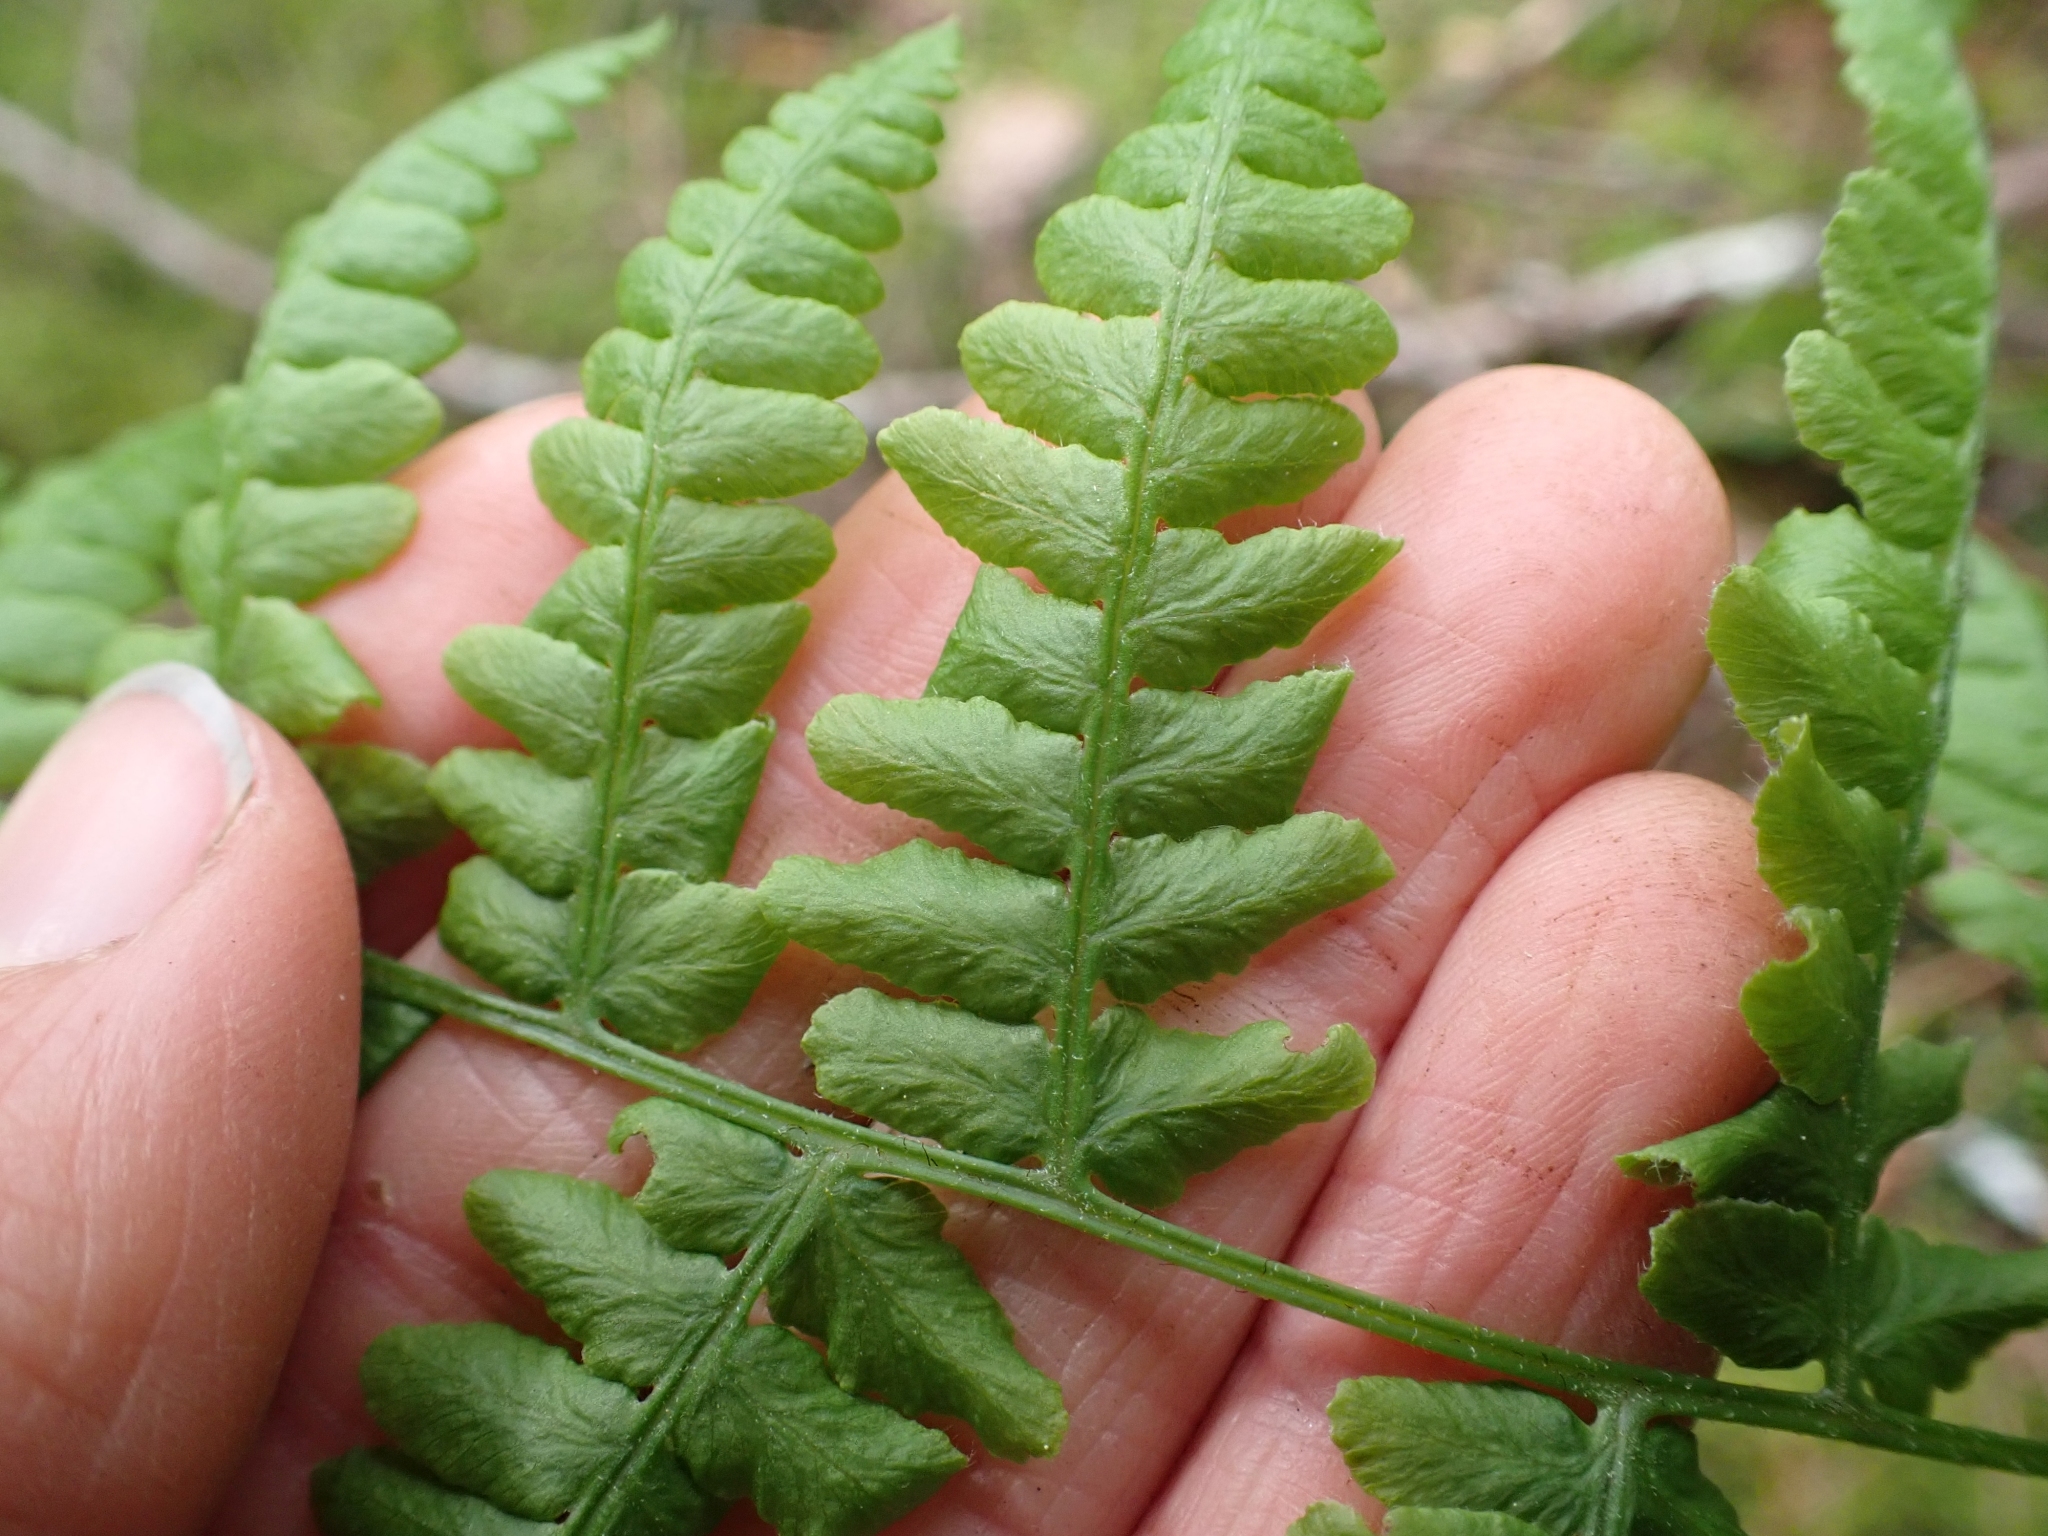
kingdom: Plantae
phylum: Tracheophyta
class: Polypodiopsida
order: Polypodiales
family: Dennstaedtiaceae
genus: Pteridium
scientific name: Pteridium aquilinum
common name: Bracken
